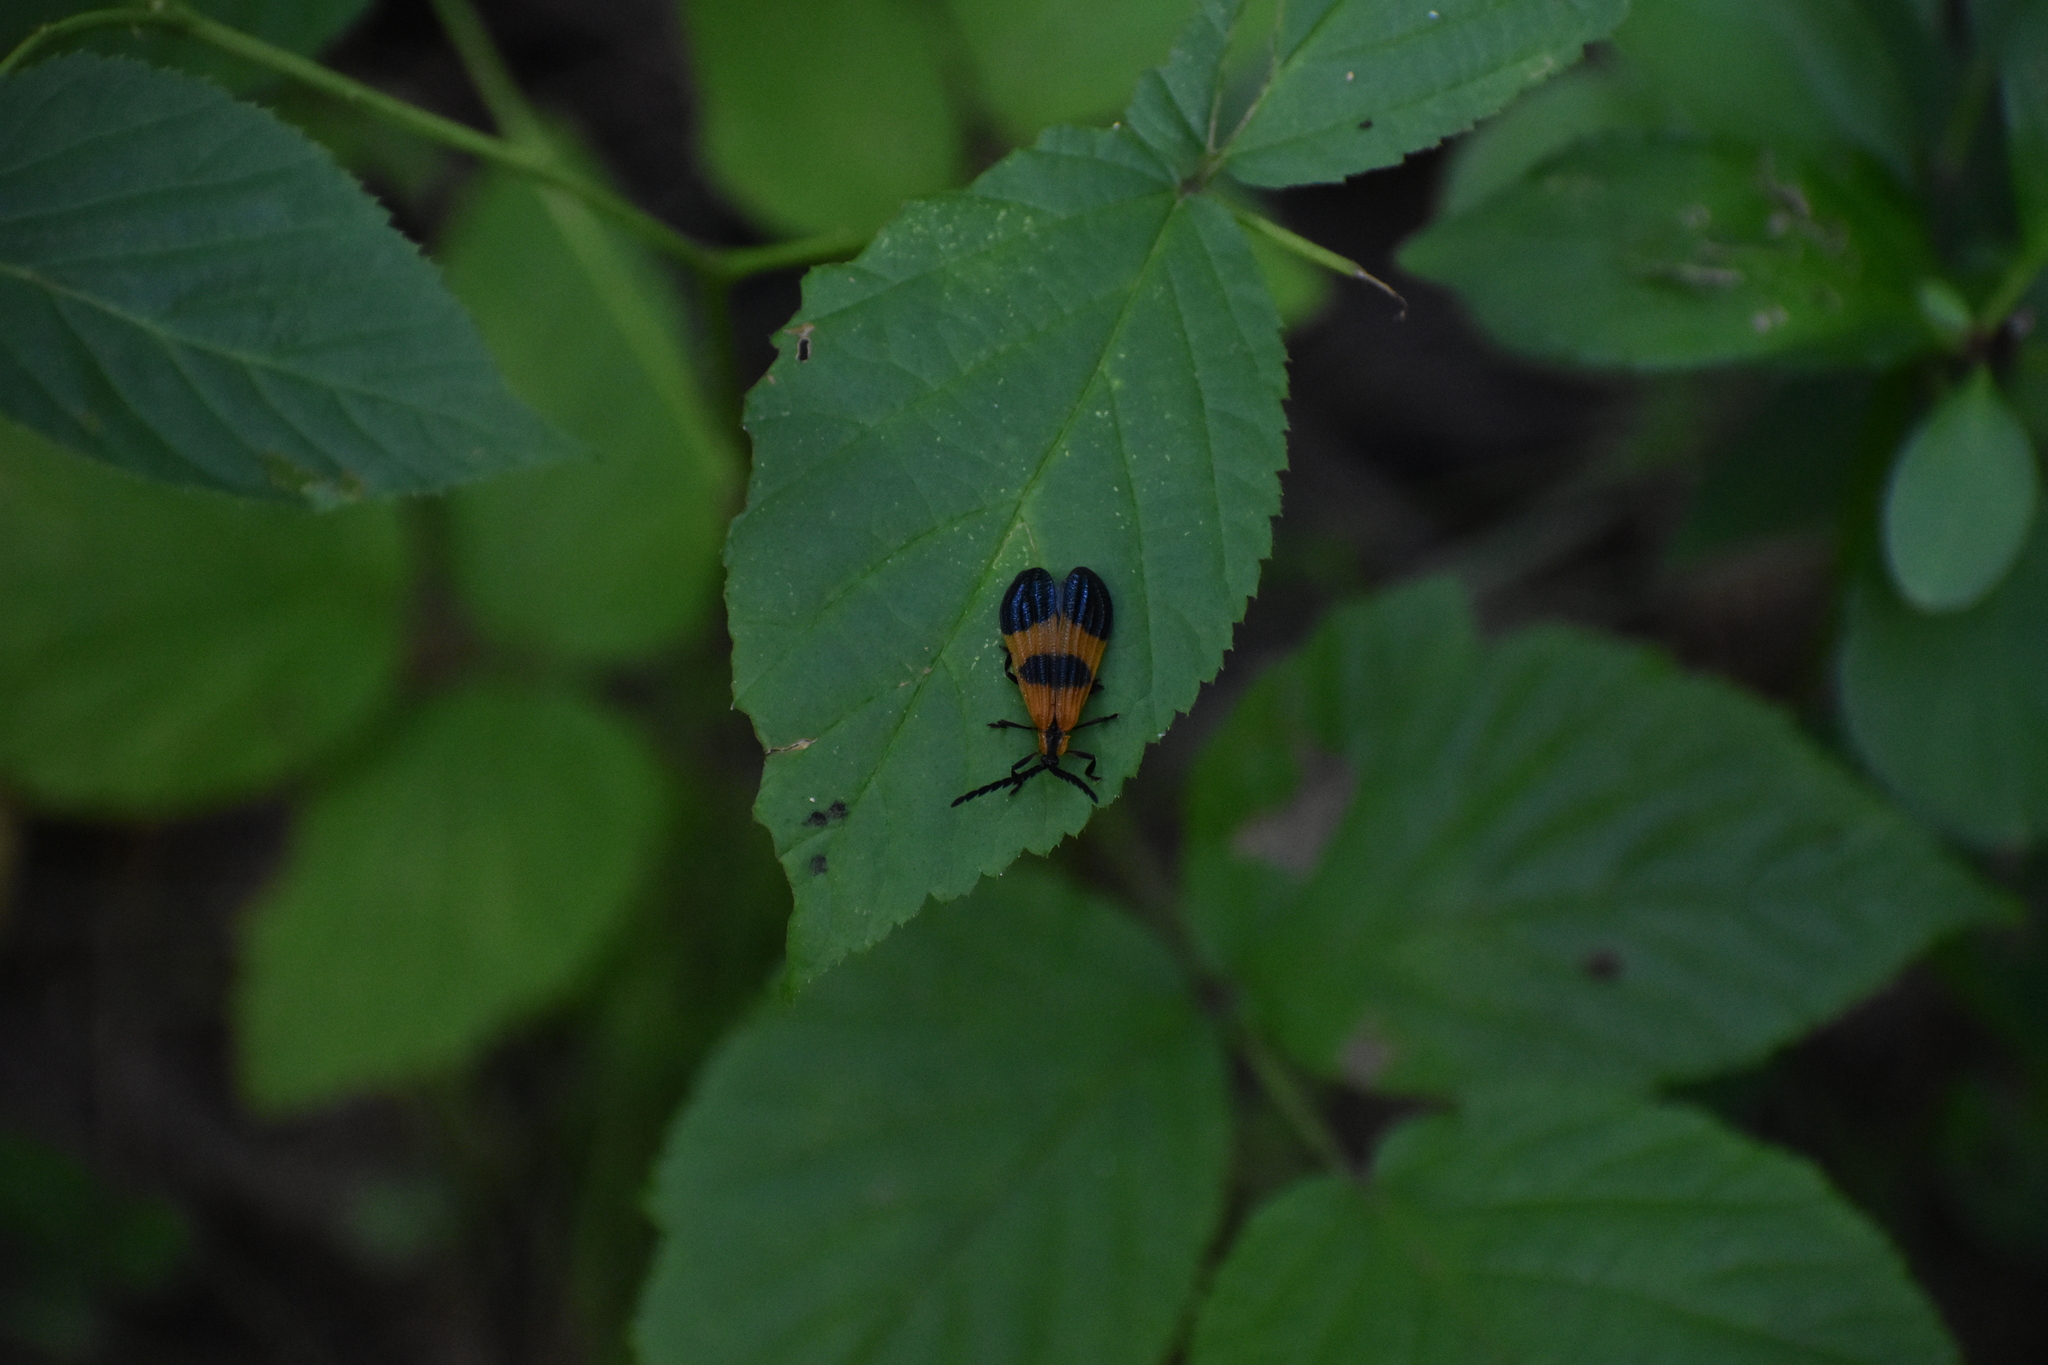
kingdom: Animalia
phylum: Arthropoda
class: Insecta
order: Coleoptera
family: Lycidae
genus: Calopteron
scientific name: Calopteron terminale
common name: End band net-winged beetle
